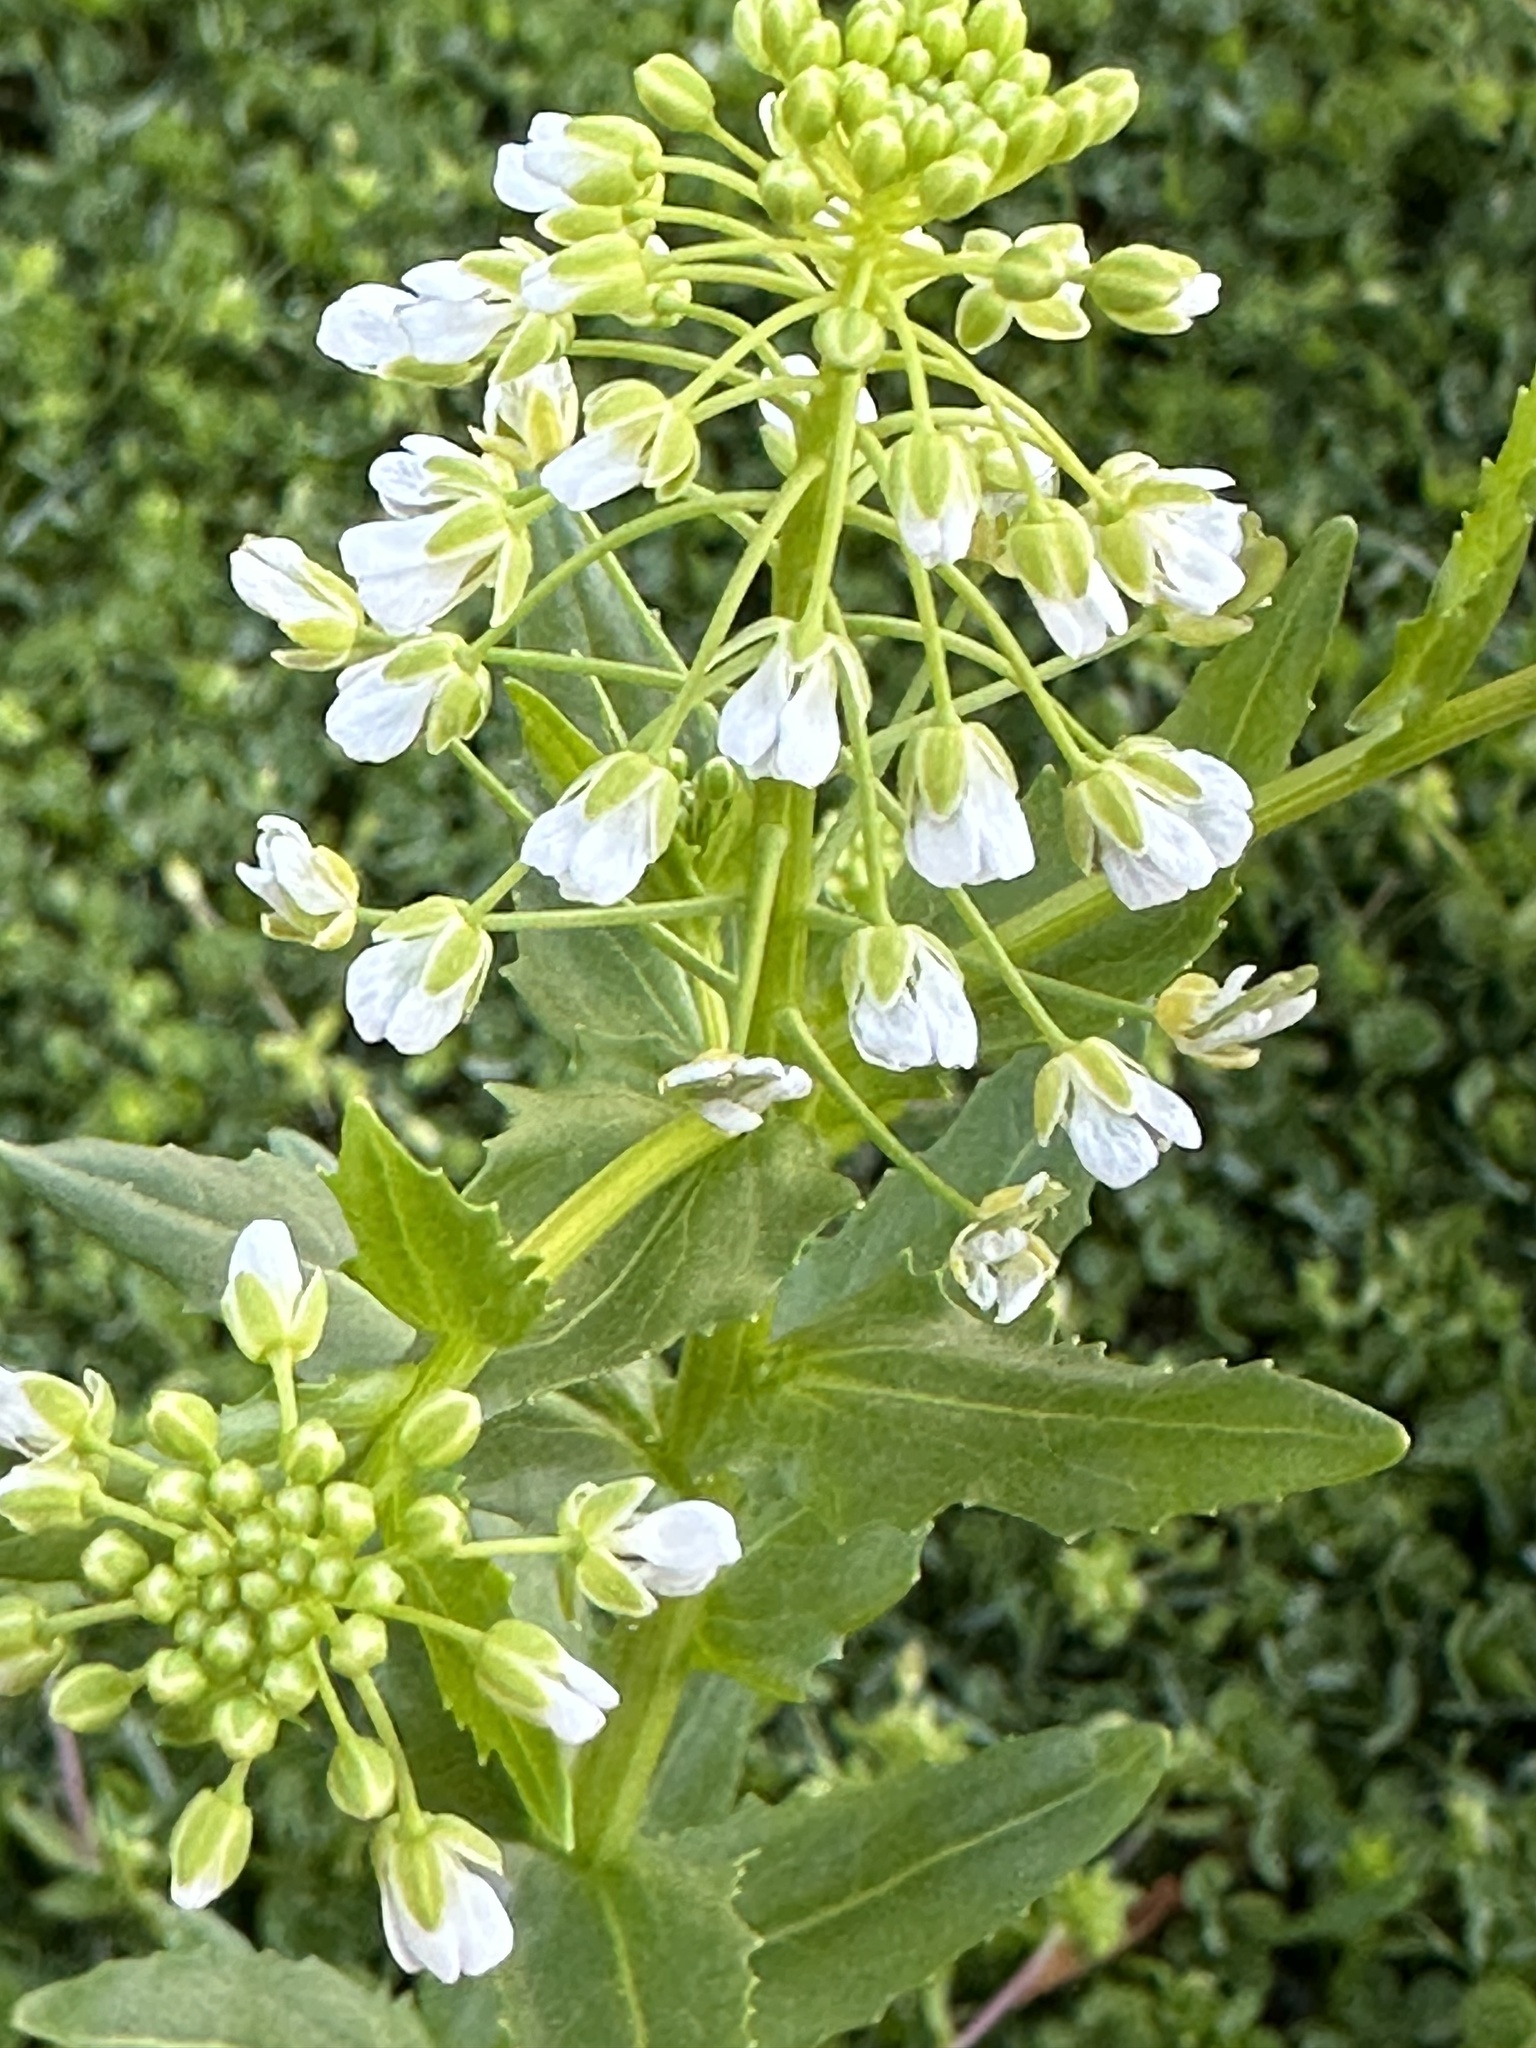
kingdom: Plantae
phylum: Tracheophyta
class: Magnoliopsida
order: Brassicales
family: Brassicaceae
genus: Thlaspi
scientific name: Thlaspi arvense
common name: Field pennycress
